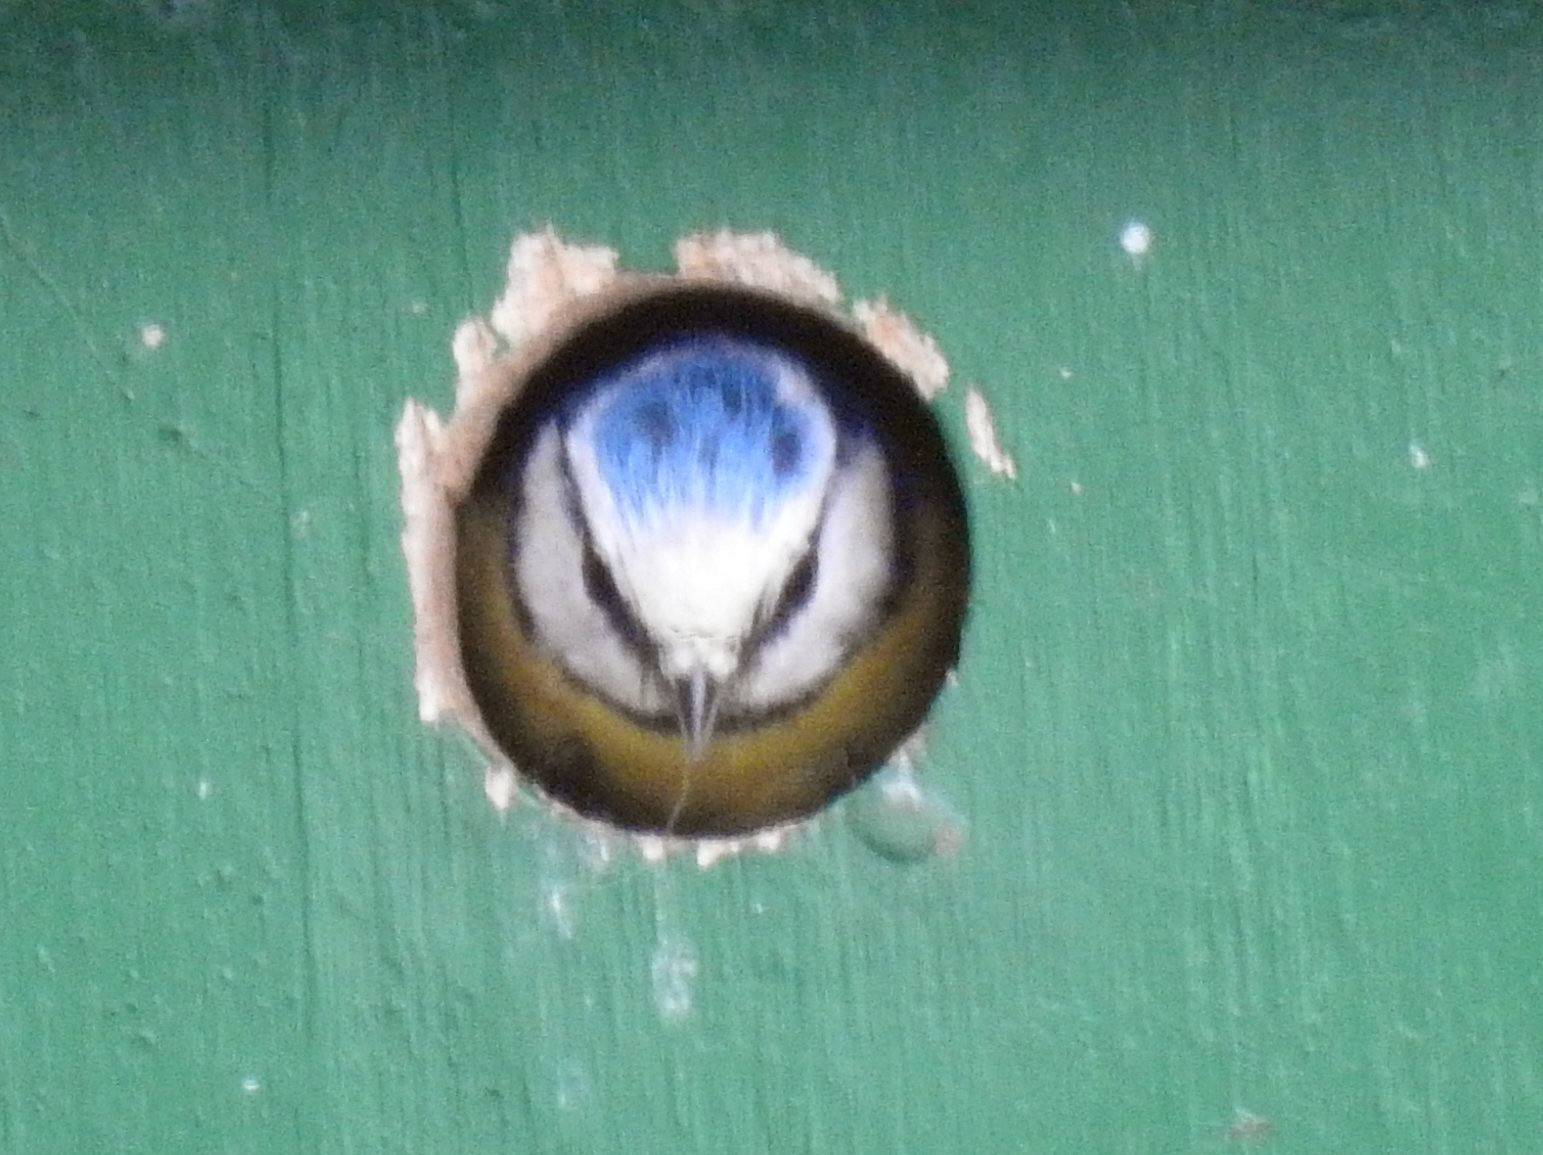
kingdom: Animalia
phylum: Chordata
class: Aves
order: Passeriformes
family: Paridae
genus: Cyanistes
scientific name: Cyanistes caeruleus
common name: Eurasian blue tit
